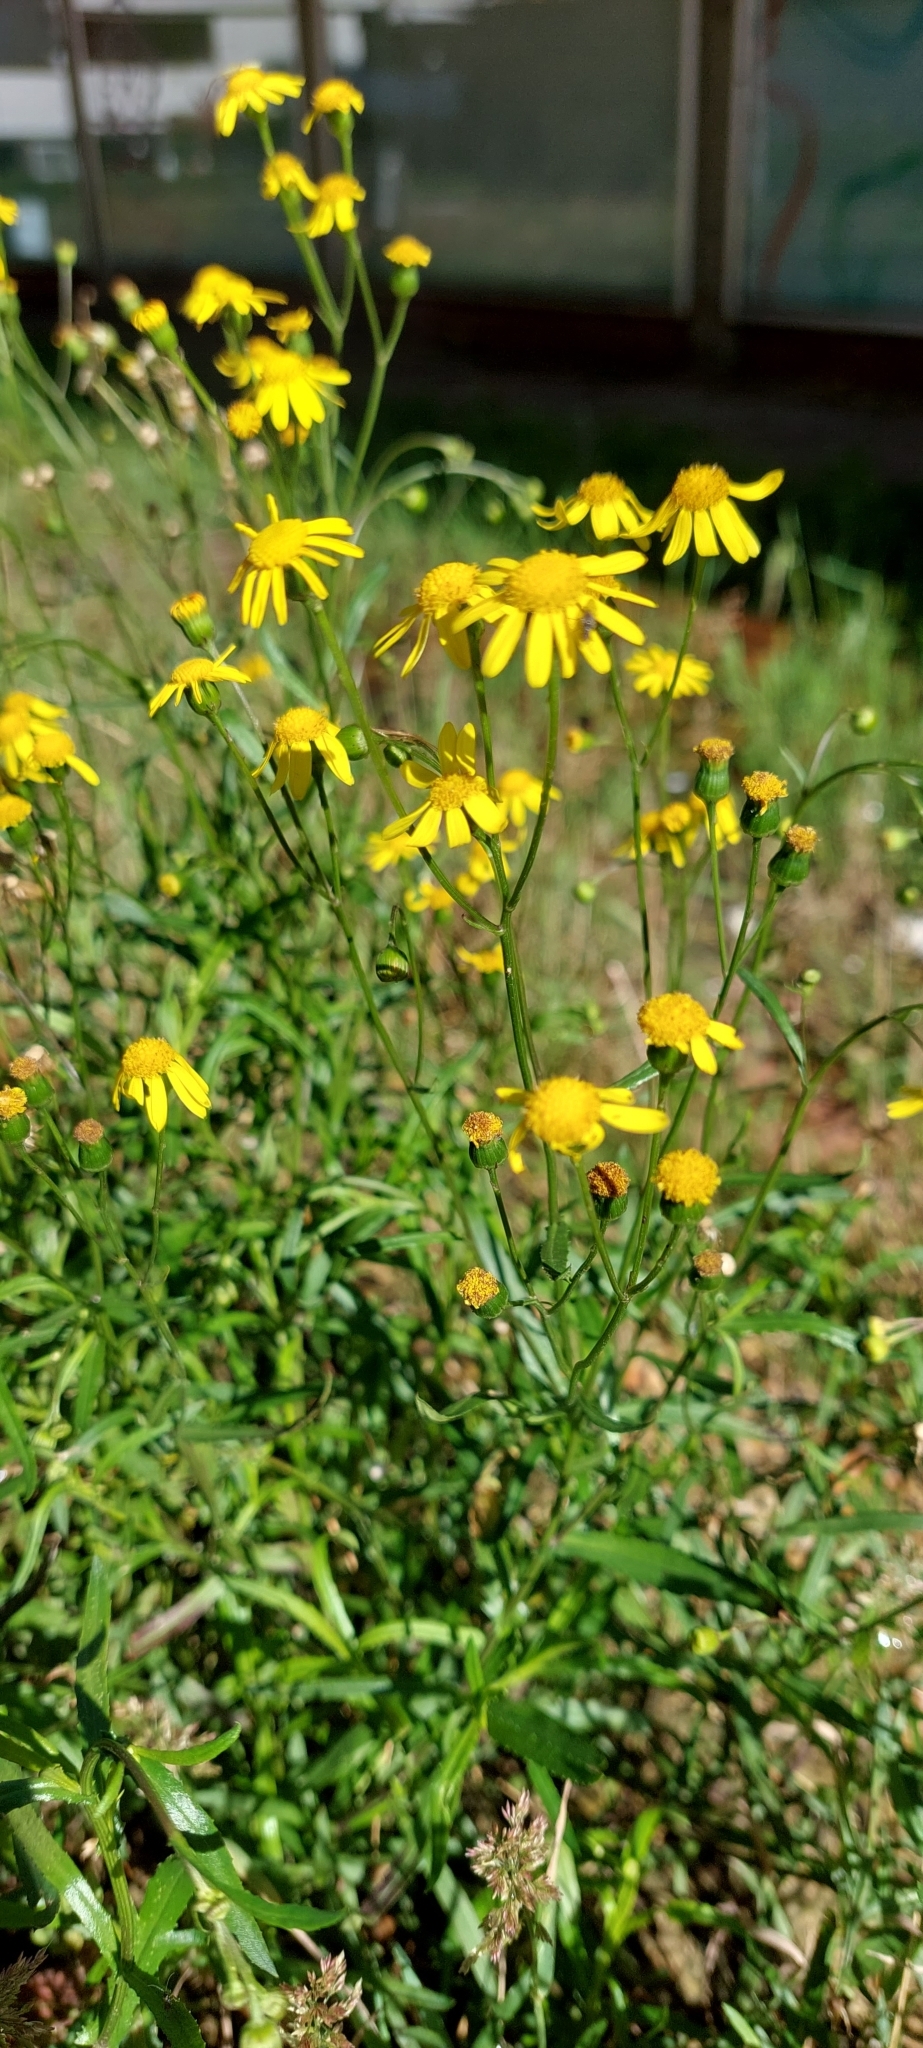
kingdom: Plantae
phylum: Tracheophyta
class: Magnoliopsida
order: Asterales
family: Asteraceae
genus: Senecio
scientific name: Senecio madagascariensis
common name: Madagascar ragwort
